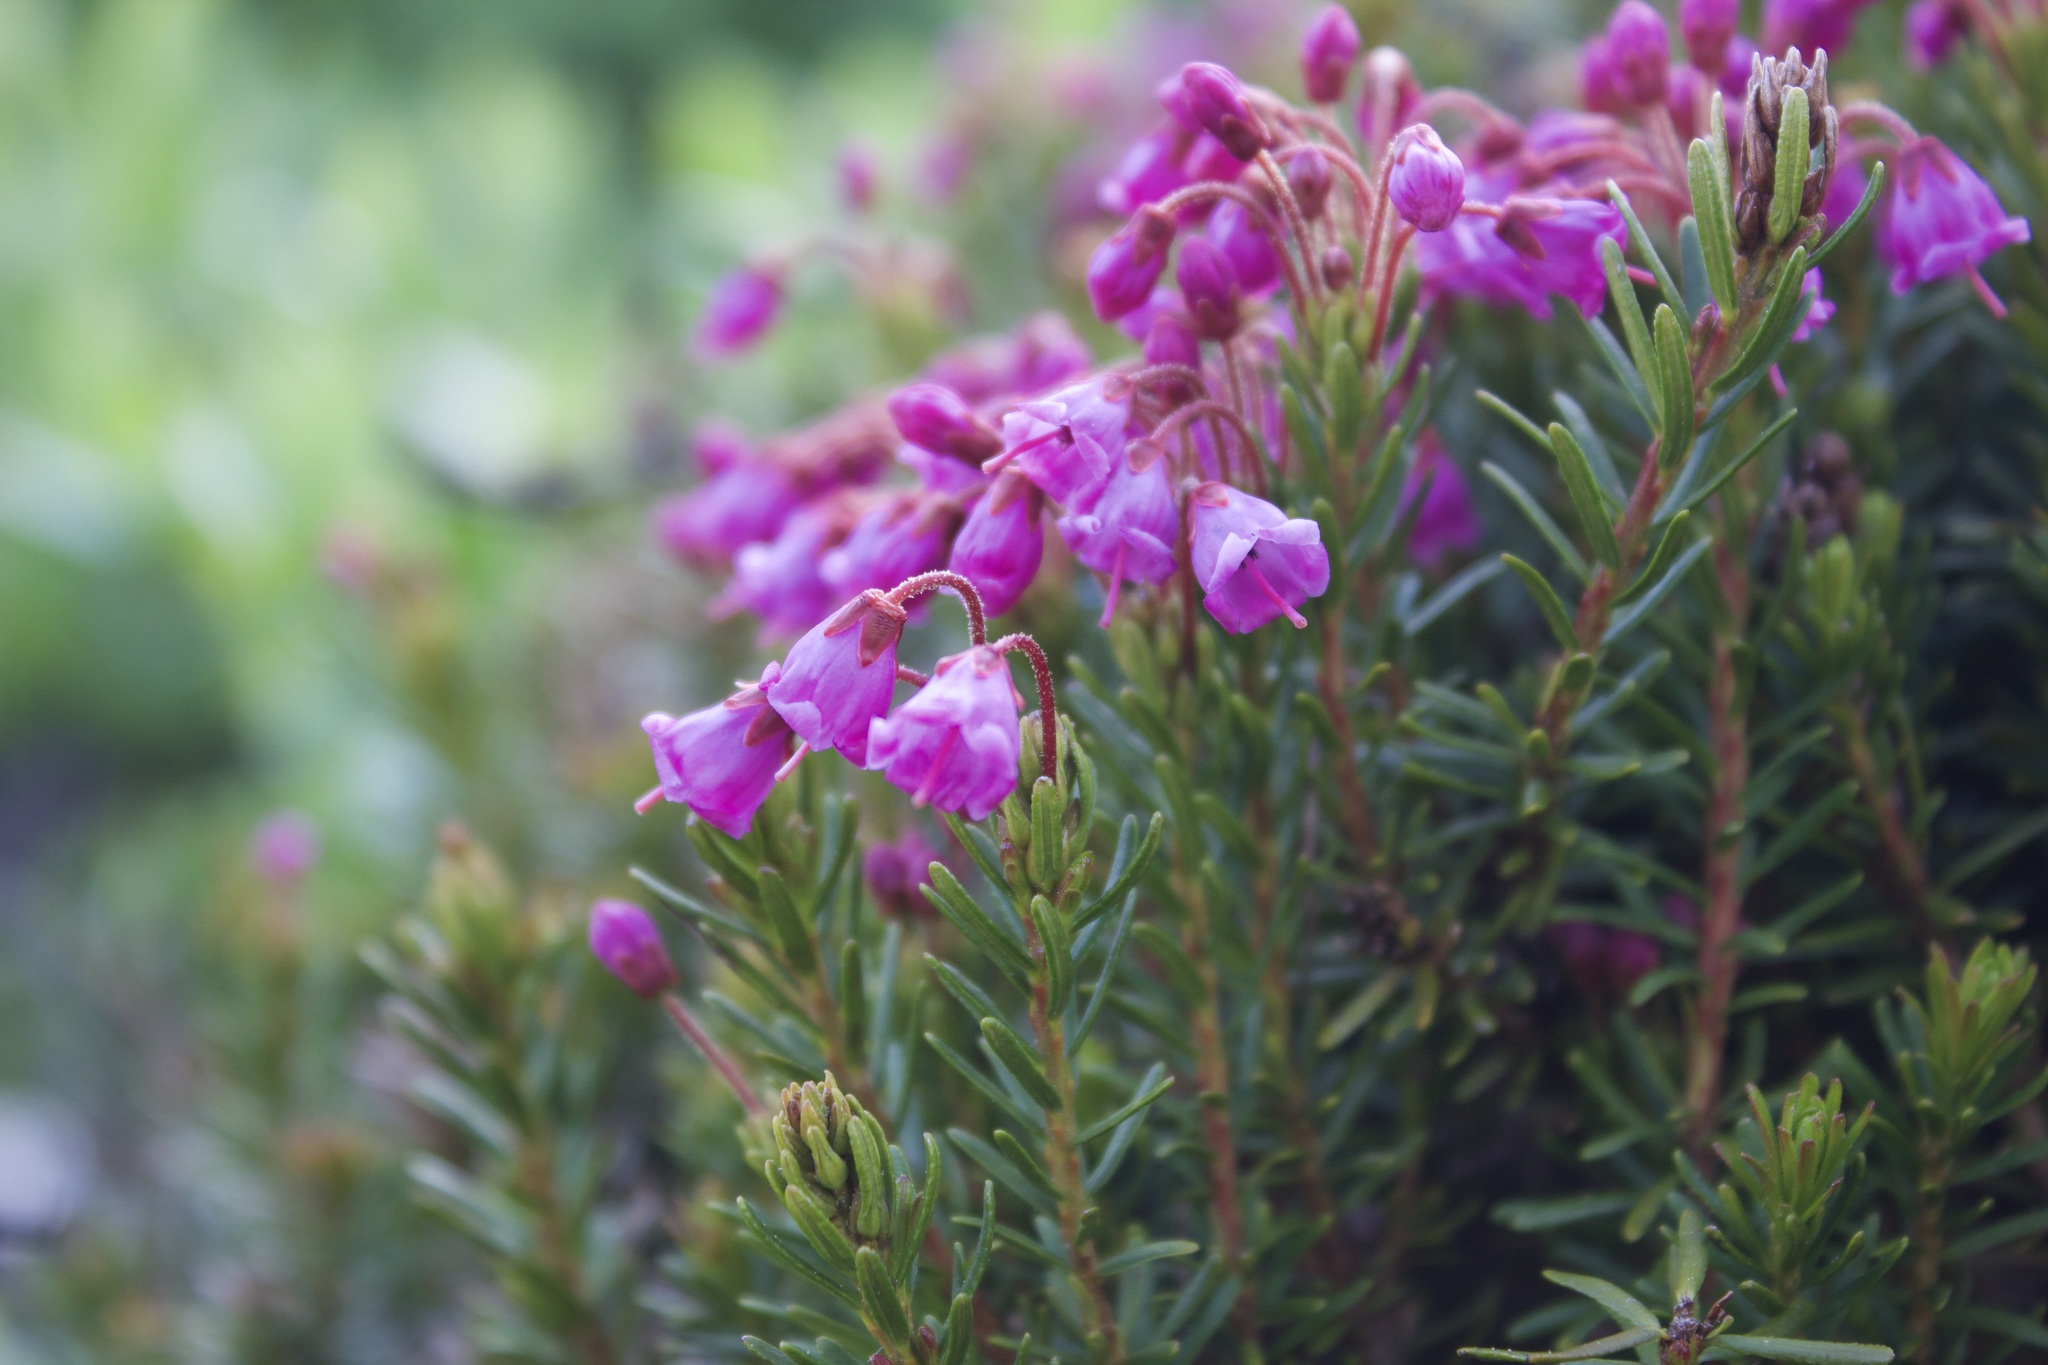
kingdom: Plantae
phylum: Tracheophyta
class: Magnoliopsida
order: Ericales
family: Ericaceae
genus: Phyllodoce
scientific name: Phyllodoce empetriformis
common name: Pink mountain heather
